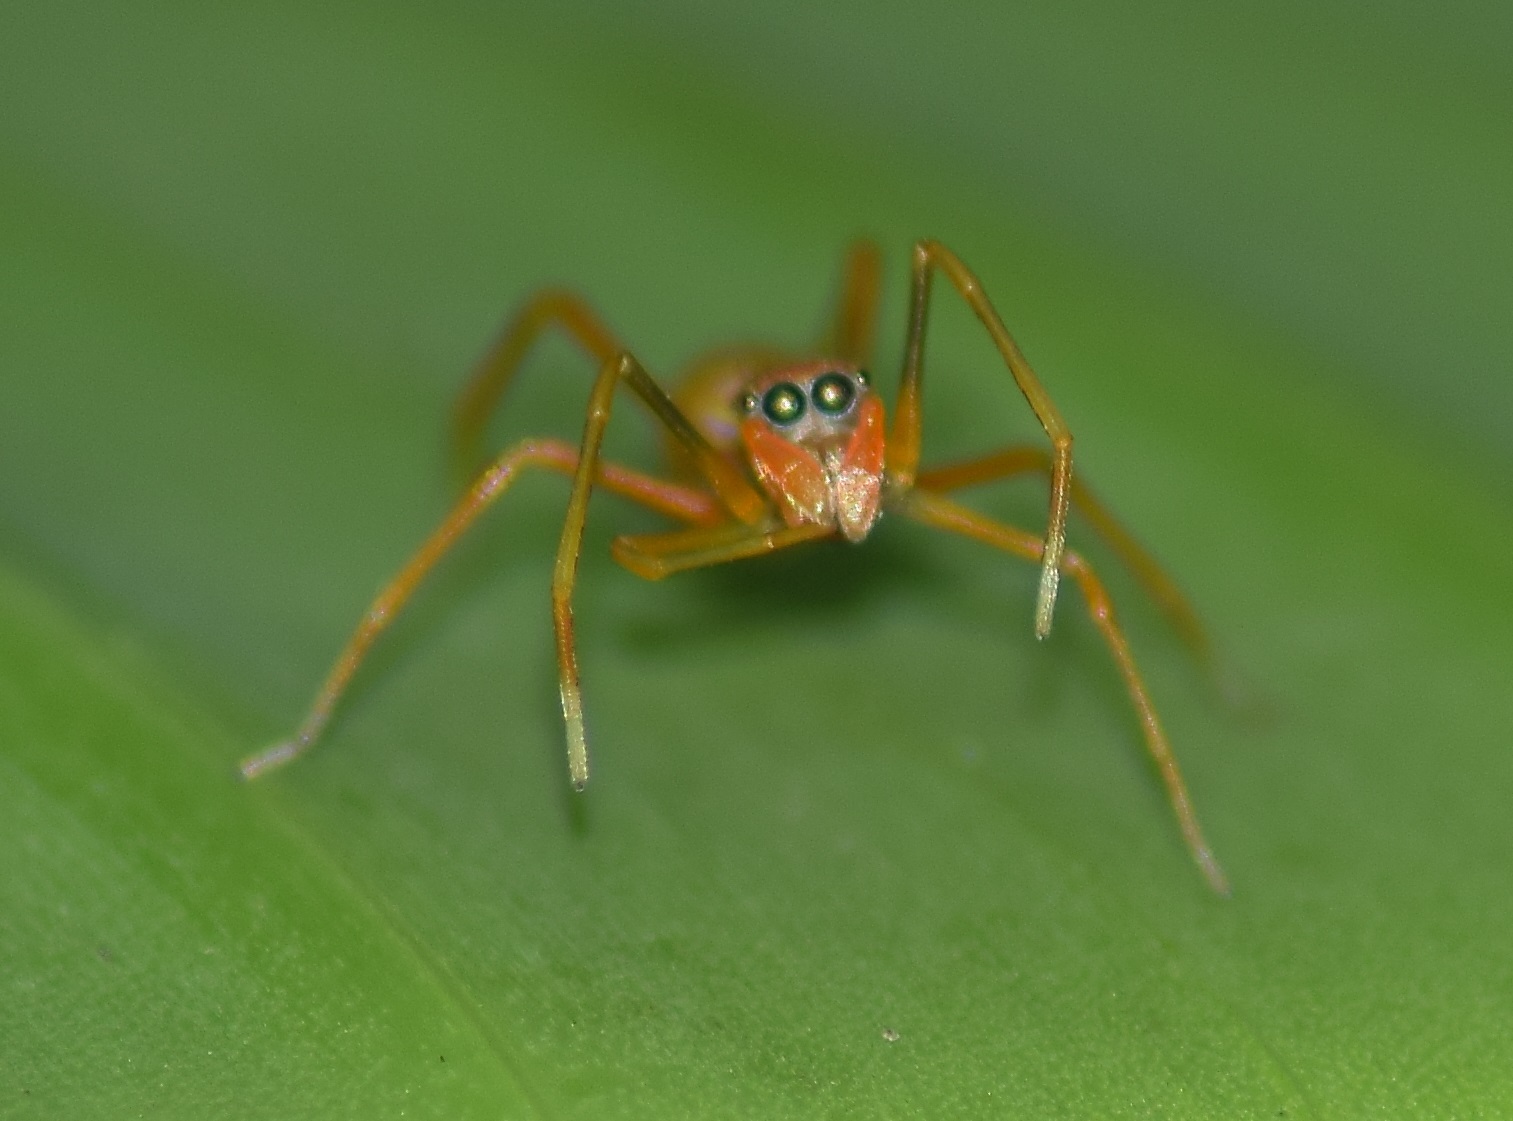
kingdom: Animalia
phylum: Arthropoda
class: Arachnida
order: Araneae
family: Salticidae
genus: Myrmaplata
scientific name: Myrmaplata plataleoides
